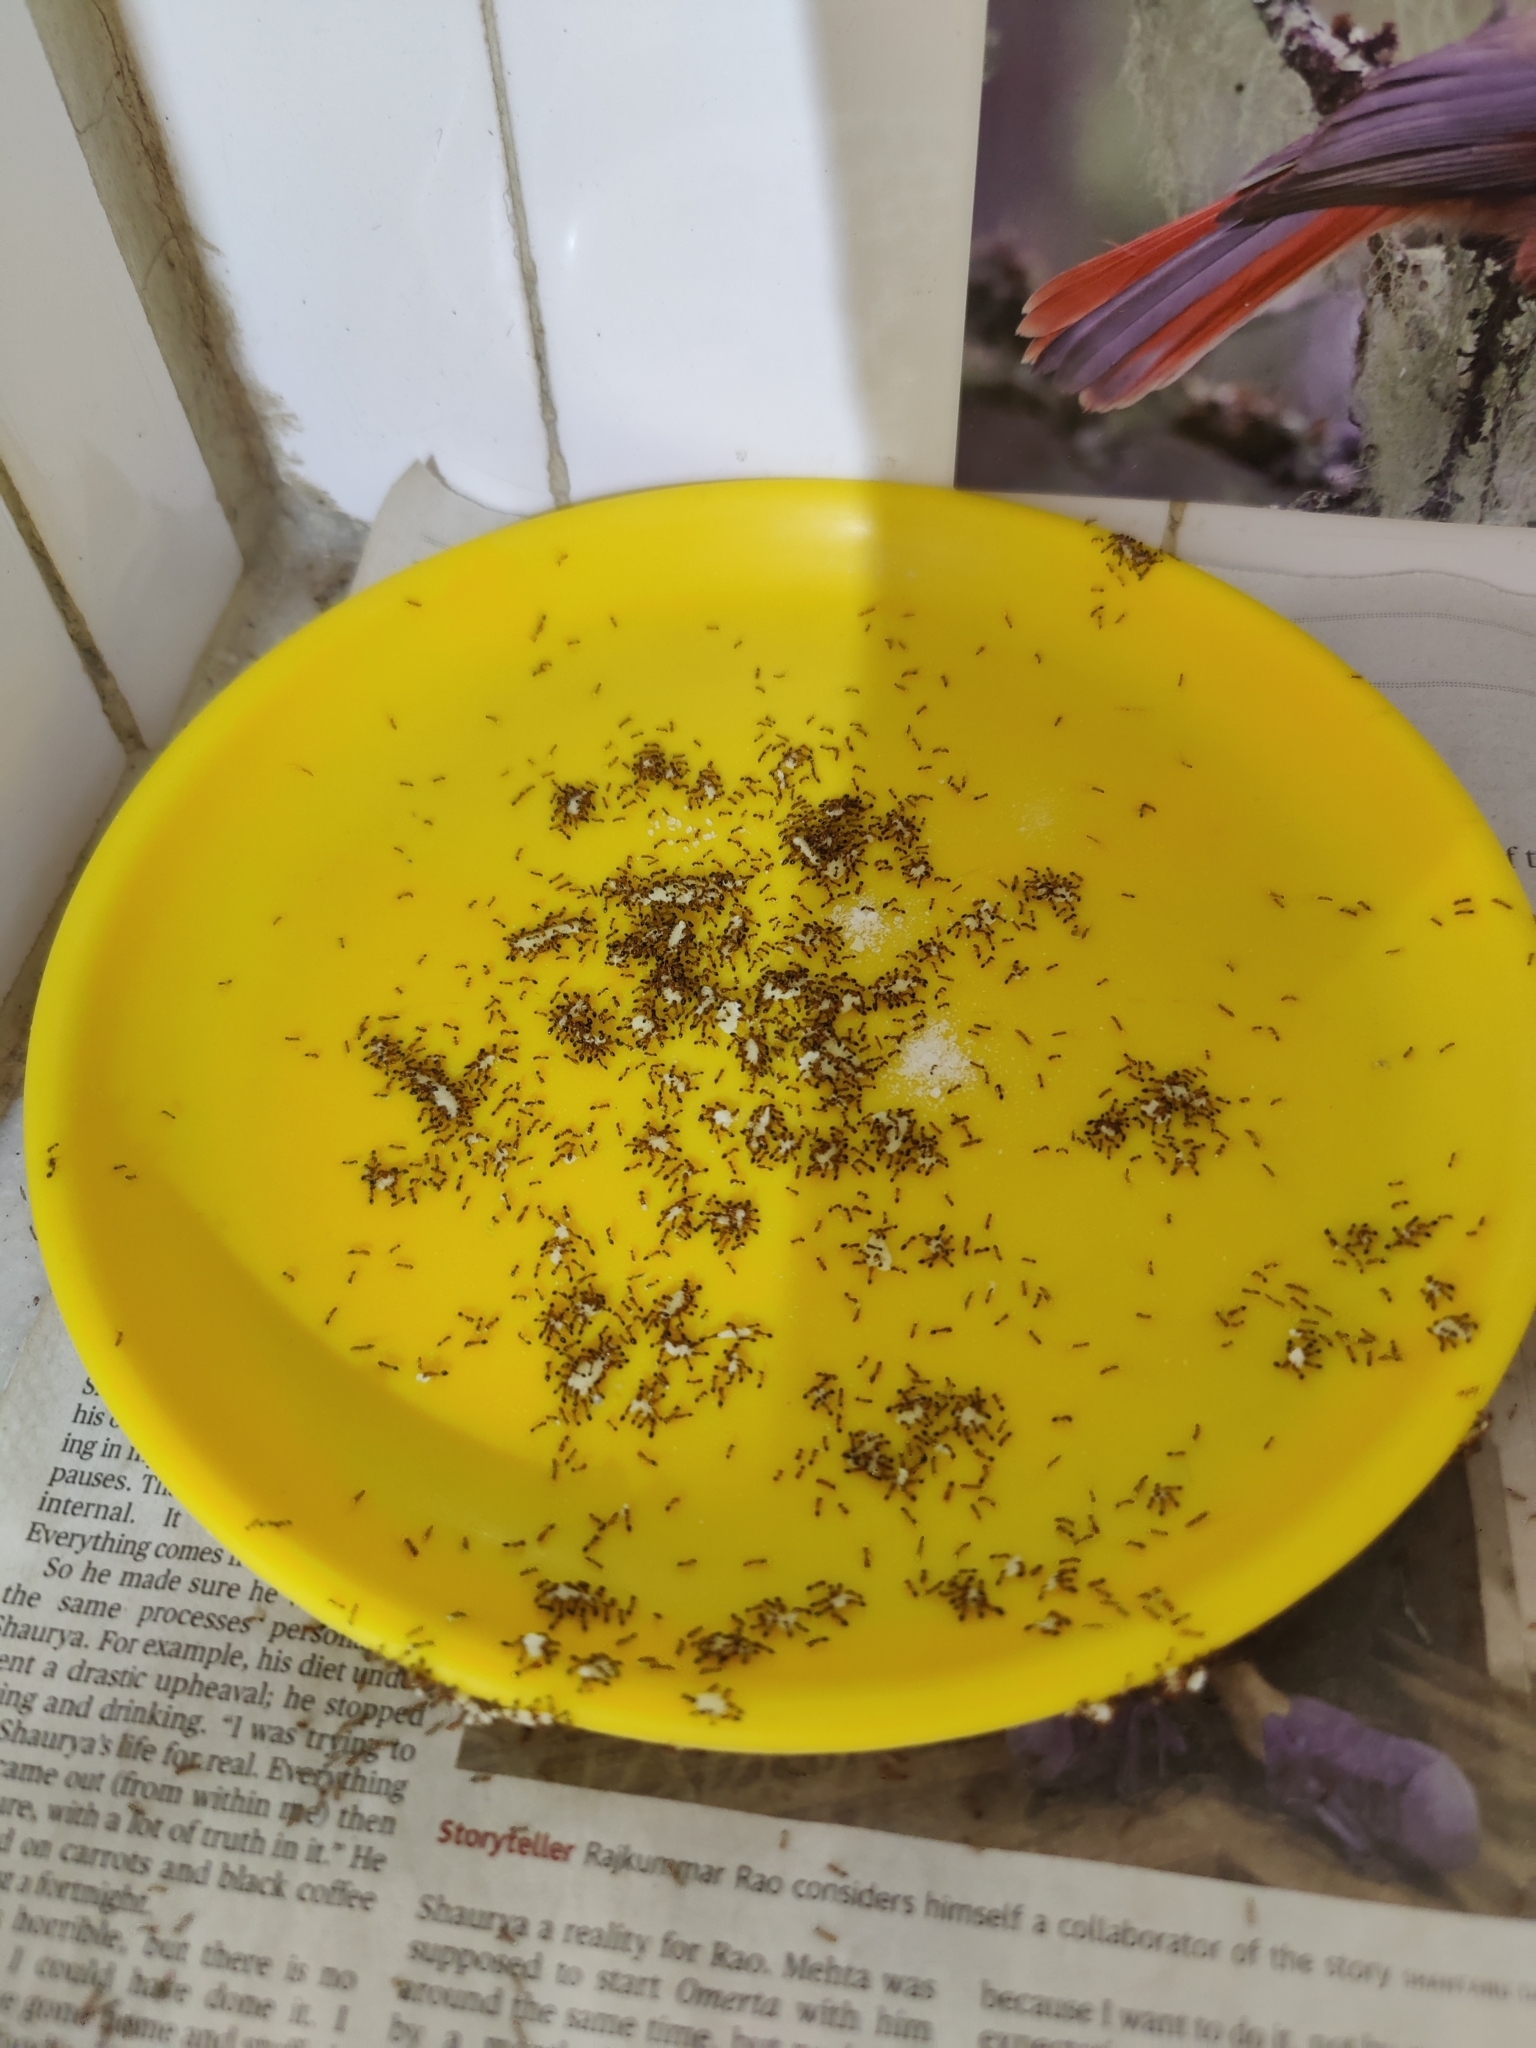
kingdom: Animalia
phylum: Arthropoda
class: Insecta
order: Hymenoptera
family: Formicidae
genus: Monomorium
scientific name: Monomorium destructor
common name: Destructive trailing ant
